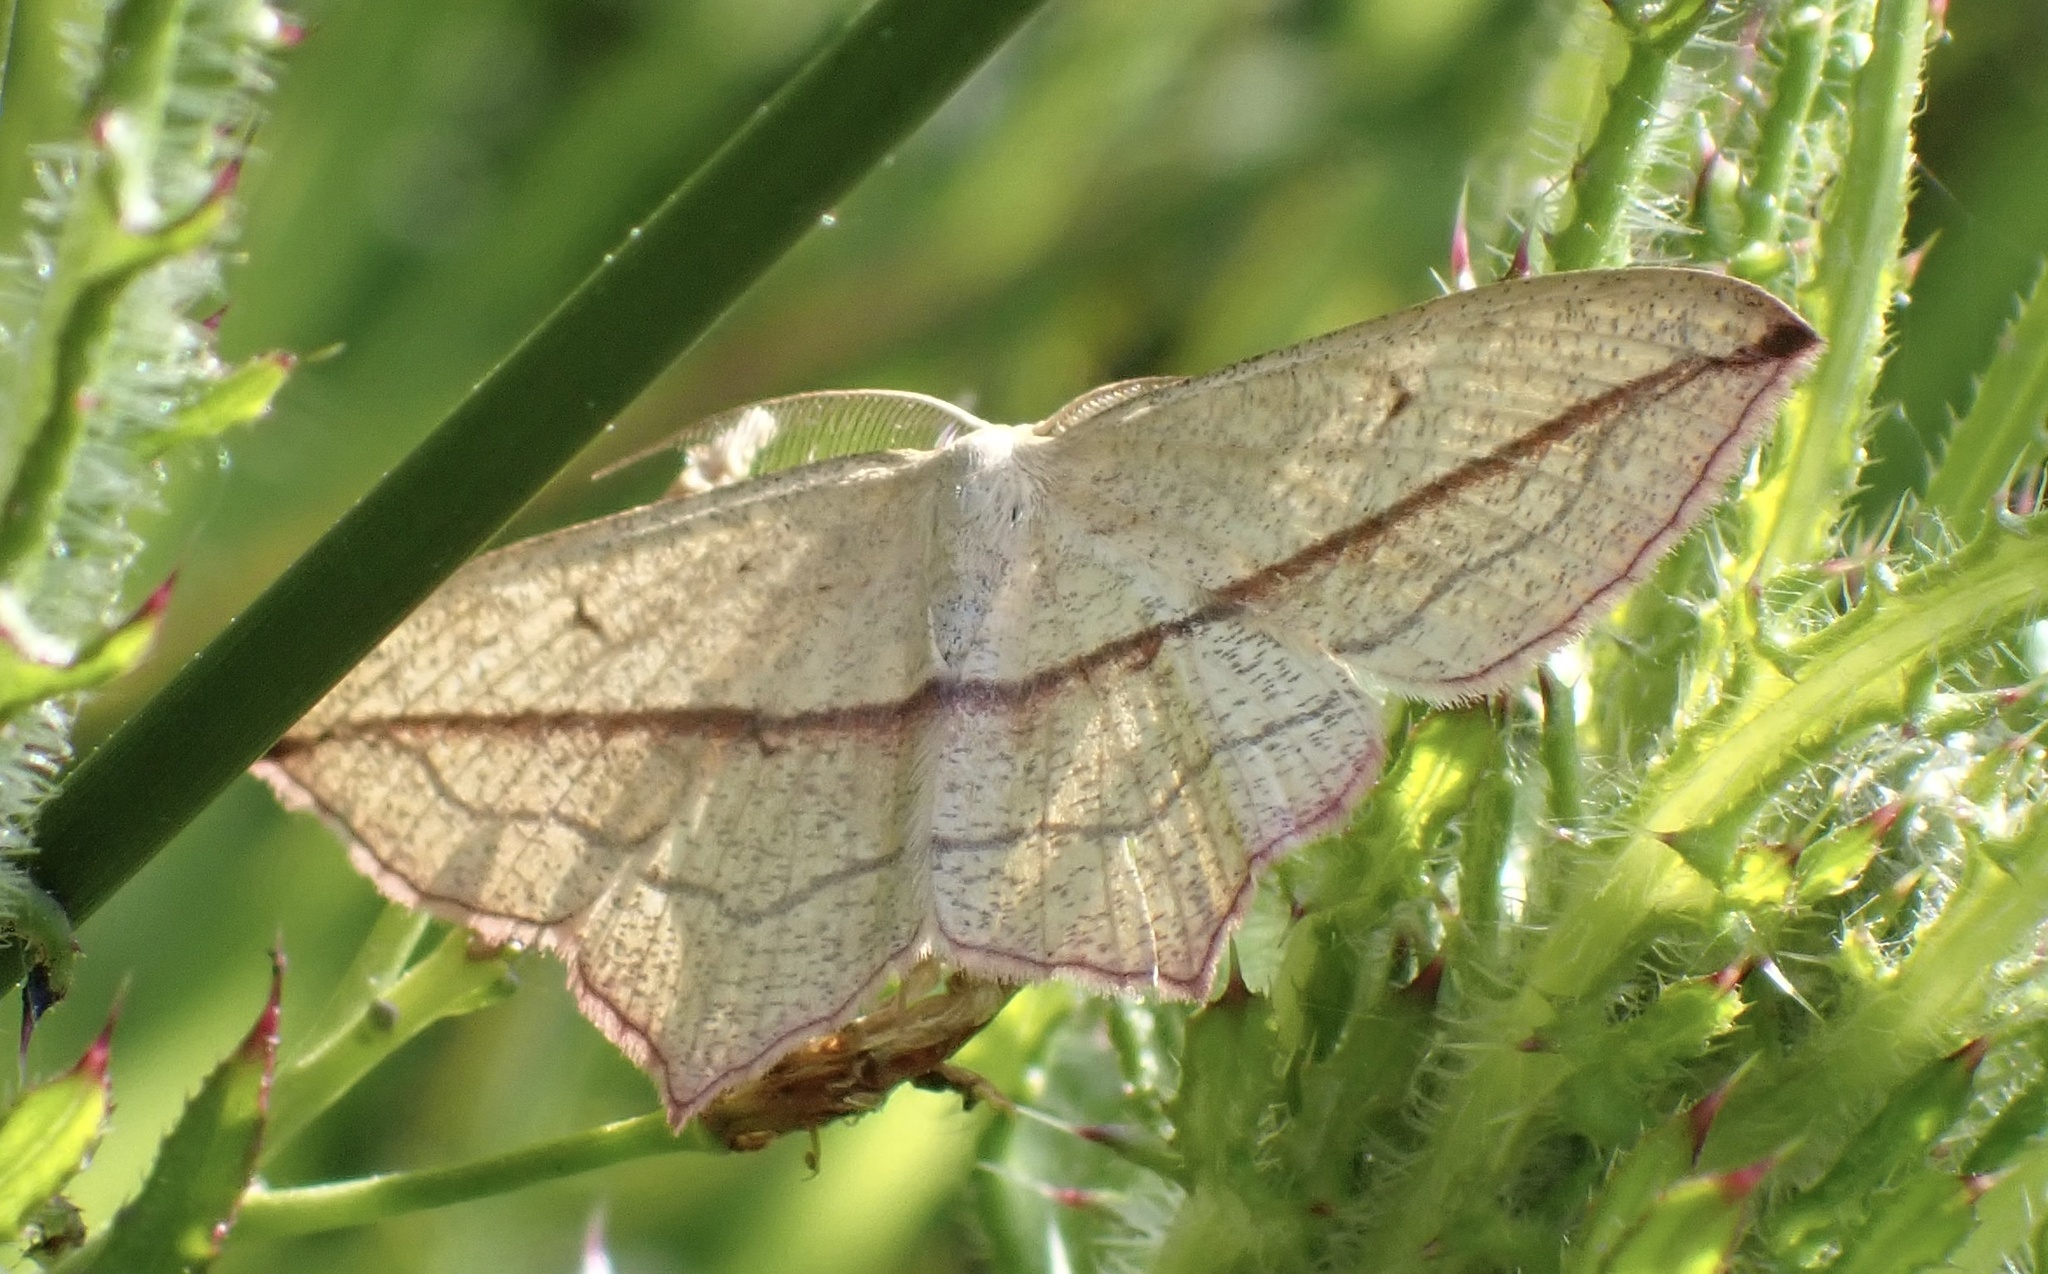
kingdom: Animalia
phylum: Arthropoda
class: Insecta
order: Lepidoptera
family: Geometridae
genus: Timandra
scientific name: Timandra comae
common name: Blood-vein
